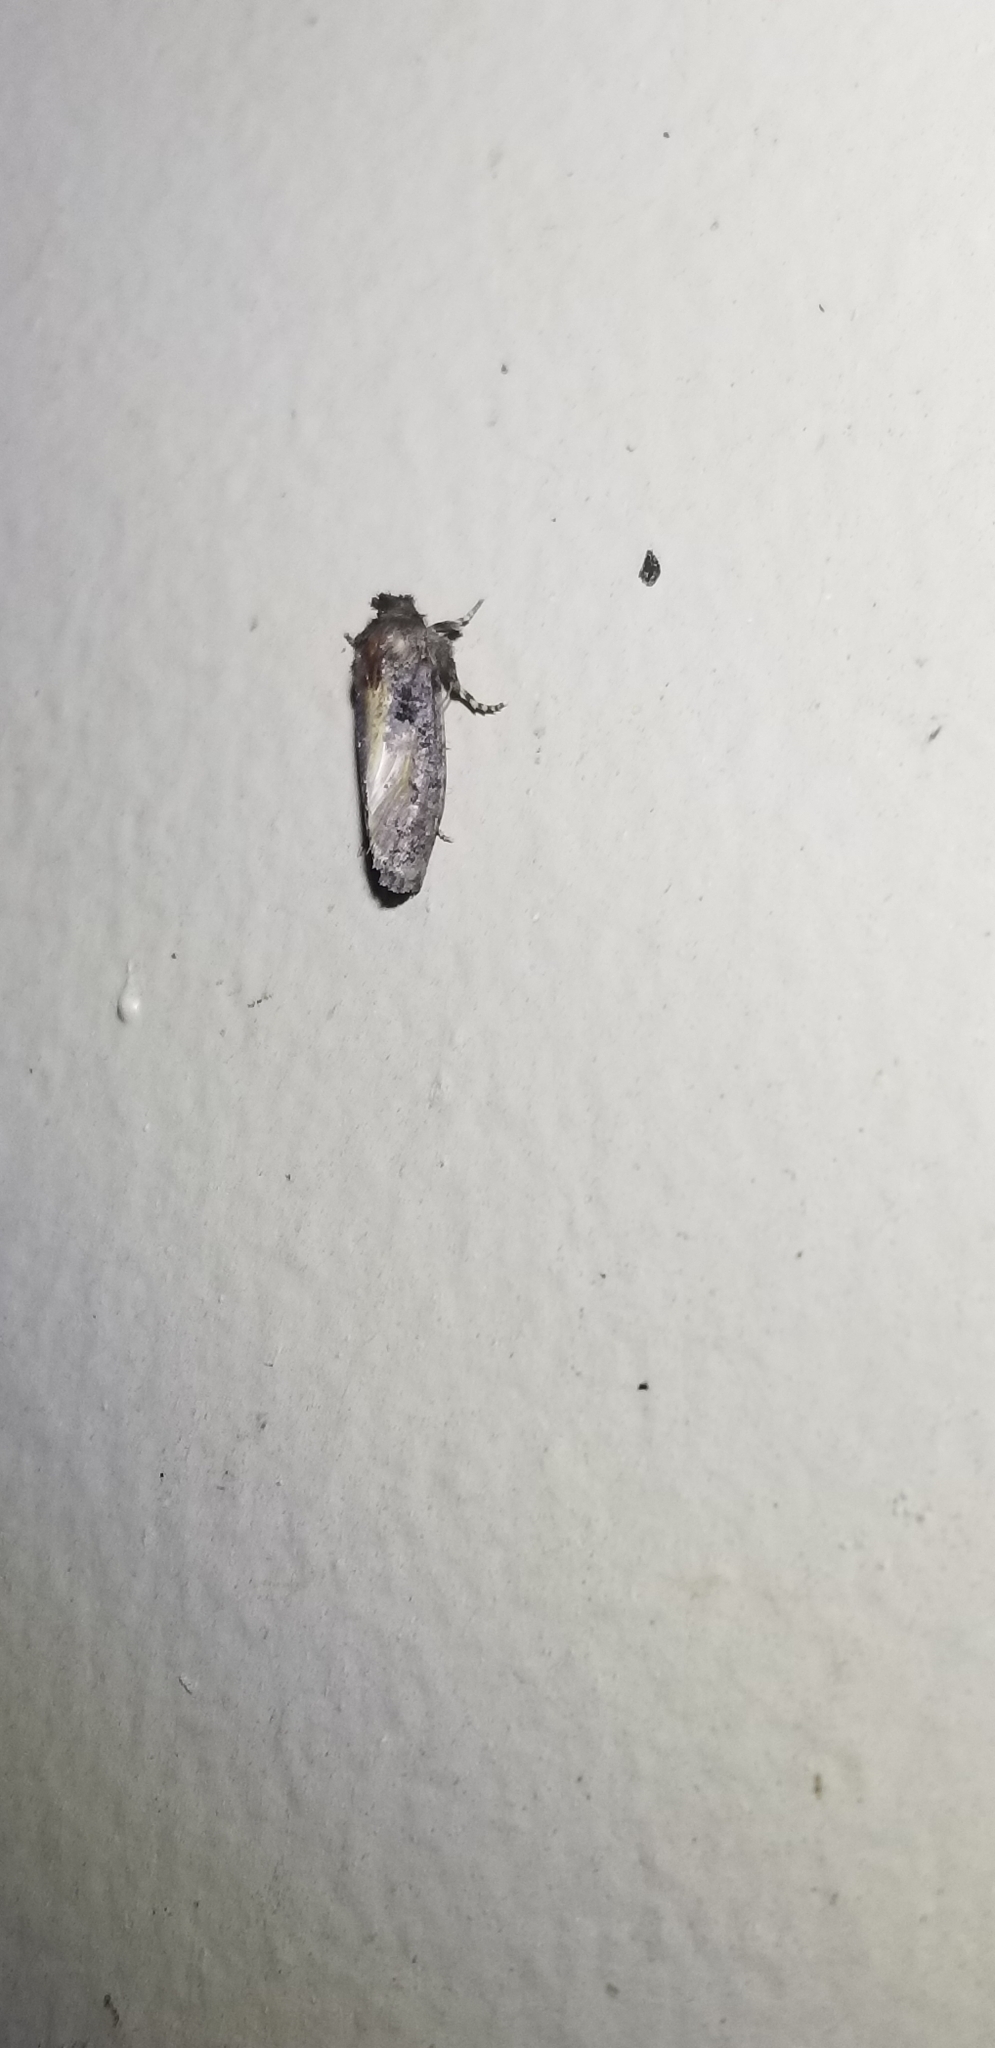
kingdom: Animalia
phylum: Arthropoda
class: Insecta
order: Lepidoptera
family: Tineidae
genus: Acrolophus
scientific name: Acrolophus arcanella
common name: Arcane grass tubeworm moth
